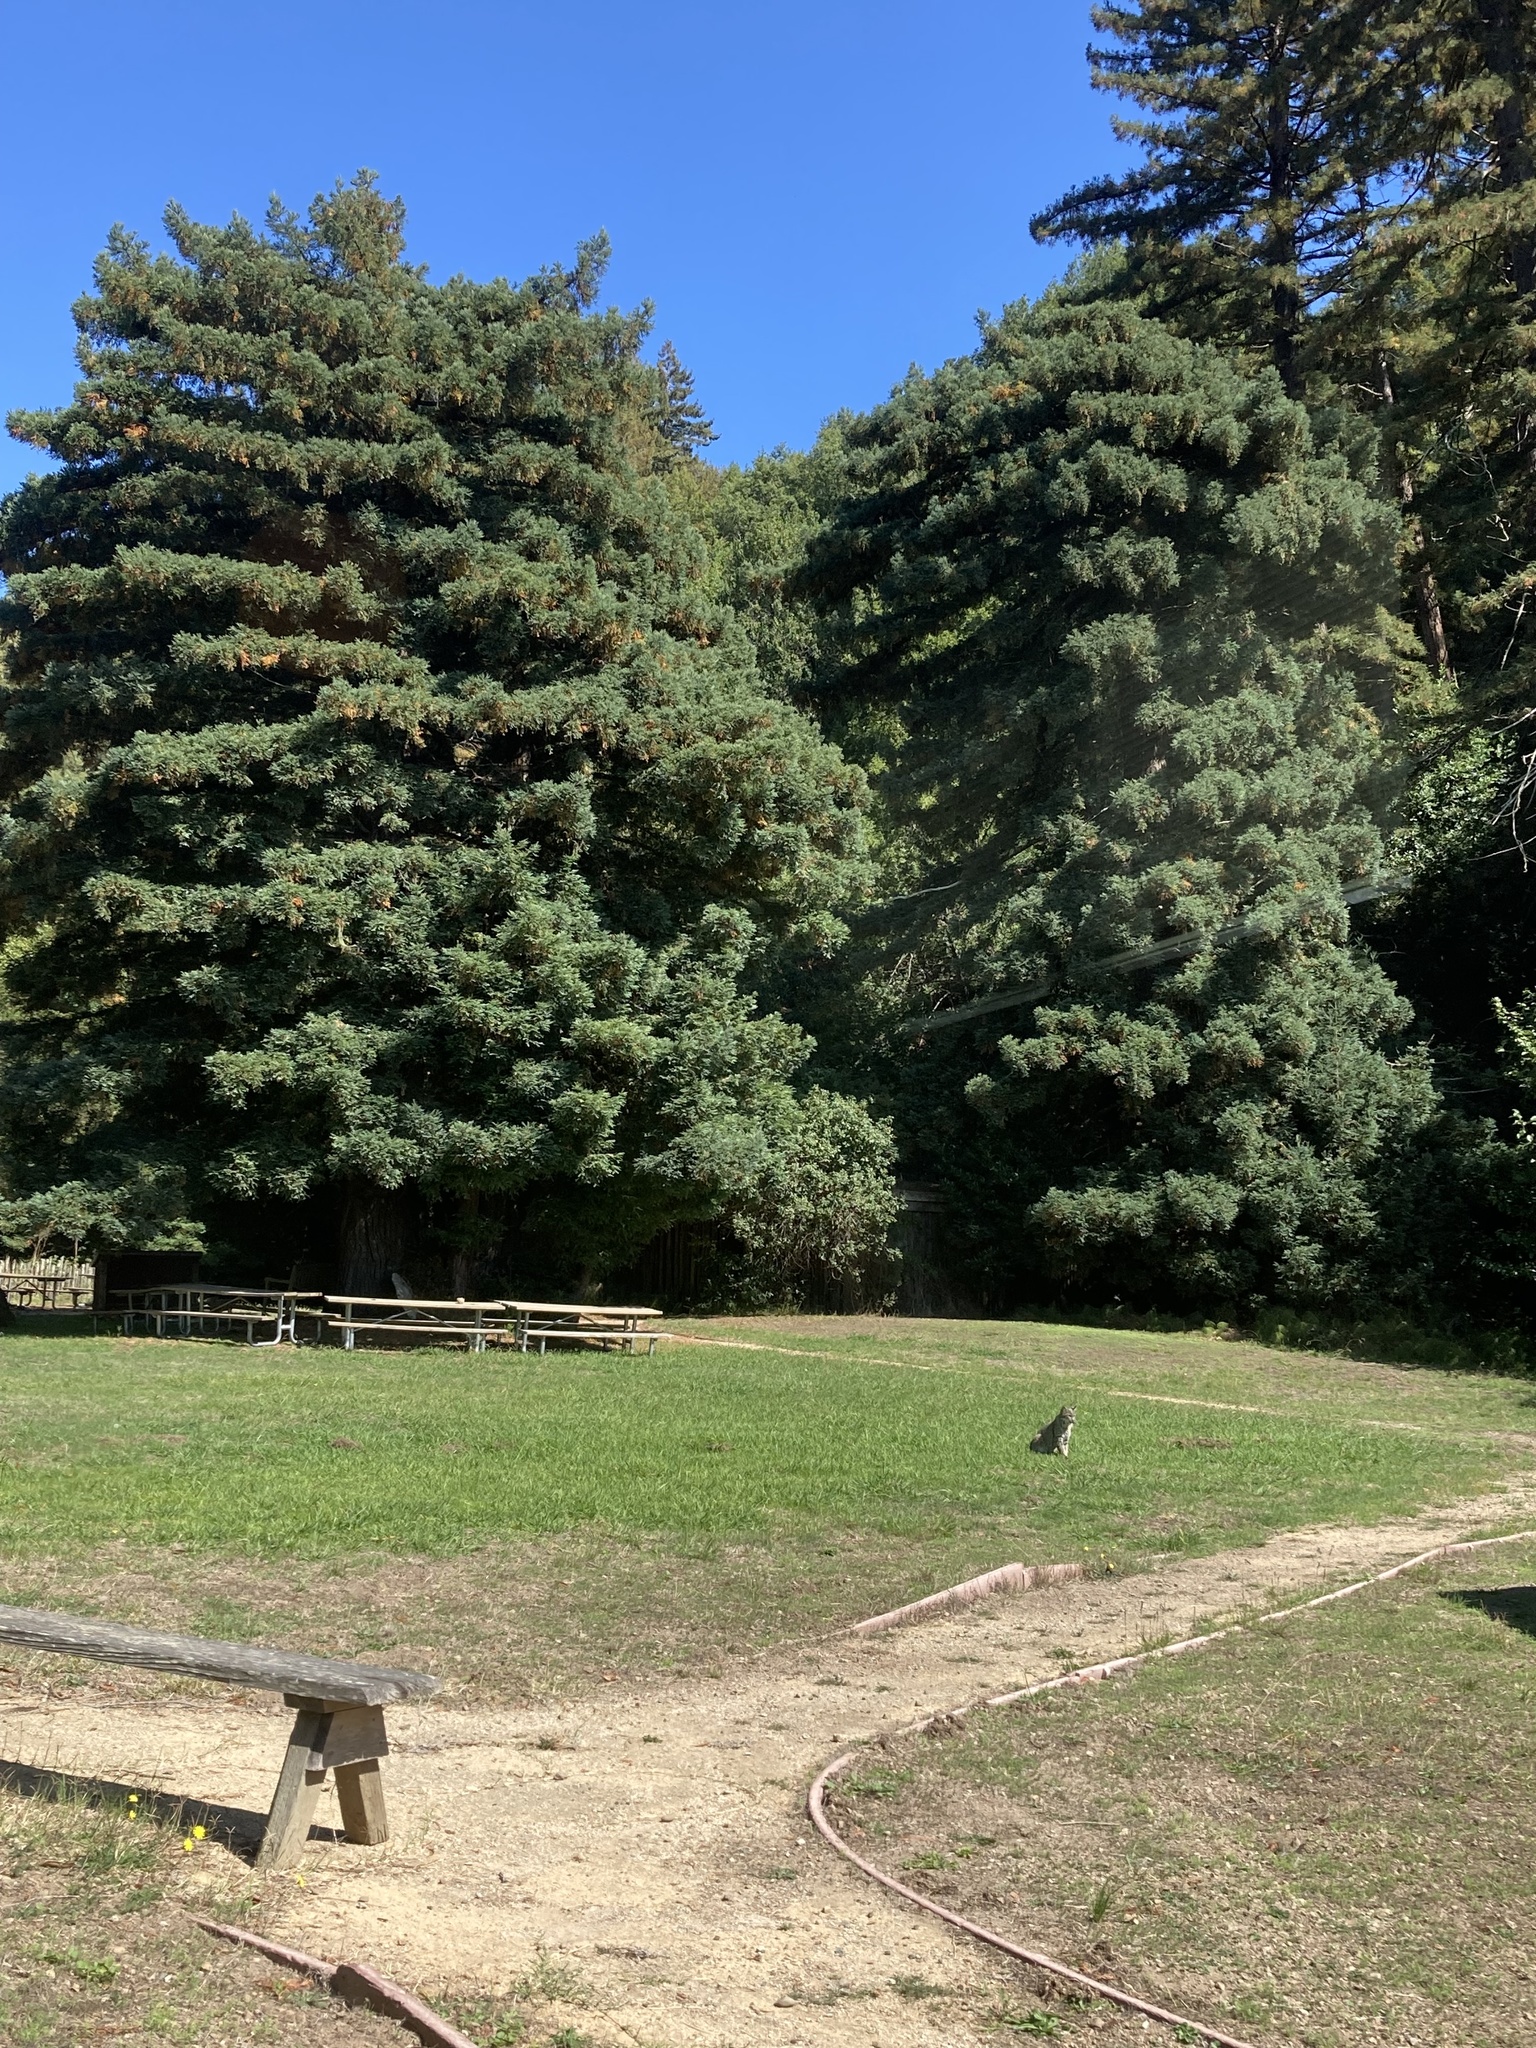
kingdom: Animalia
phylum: Chordata
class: Mammalia
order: Carnivora
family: Felidae
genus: Lynx
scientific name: Lynx rufus
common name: Bobcat
